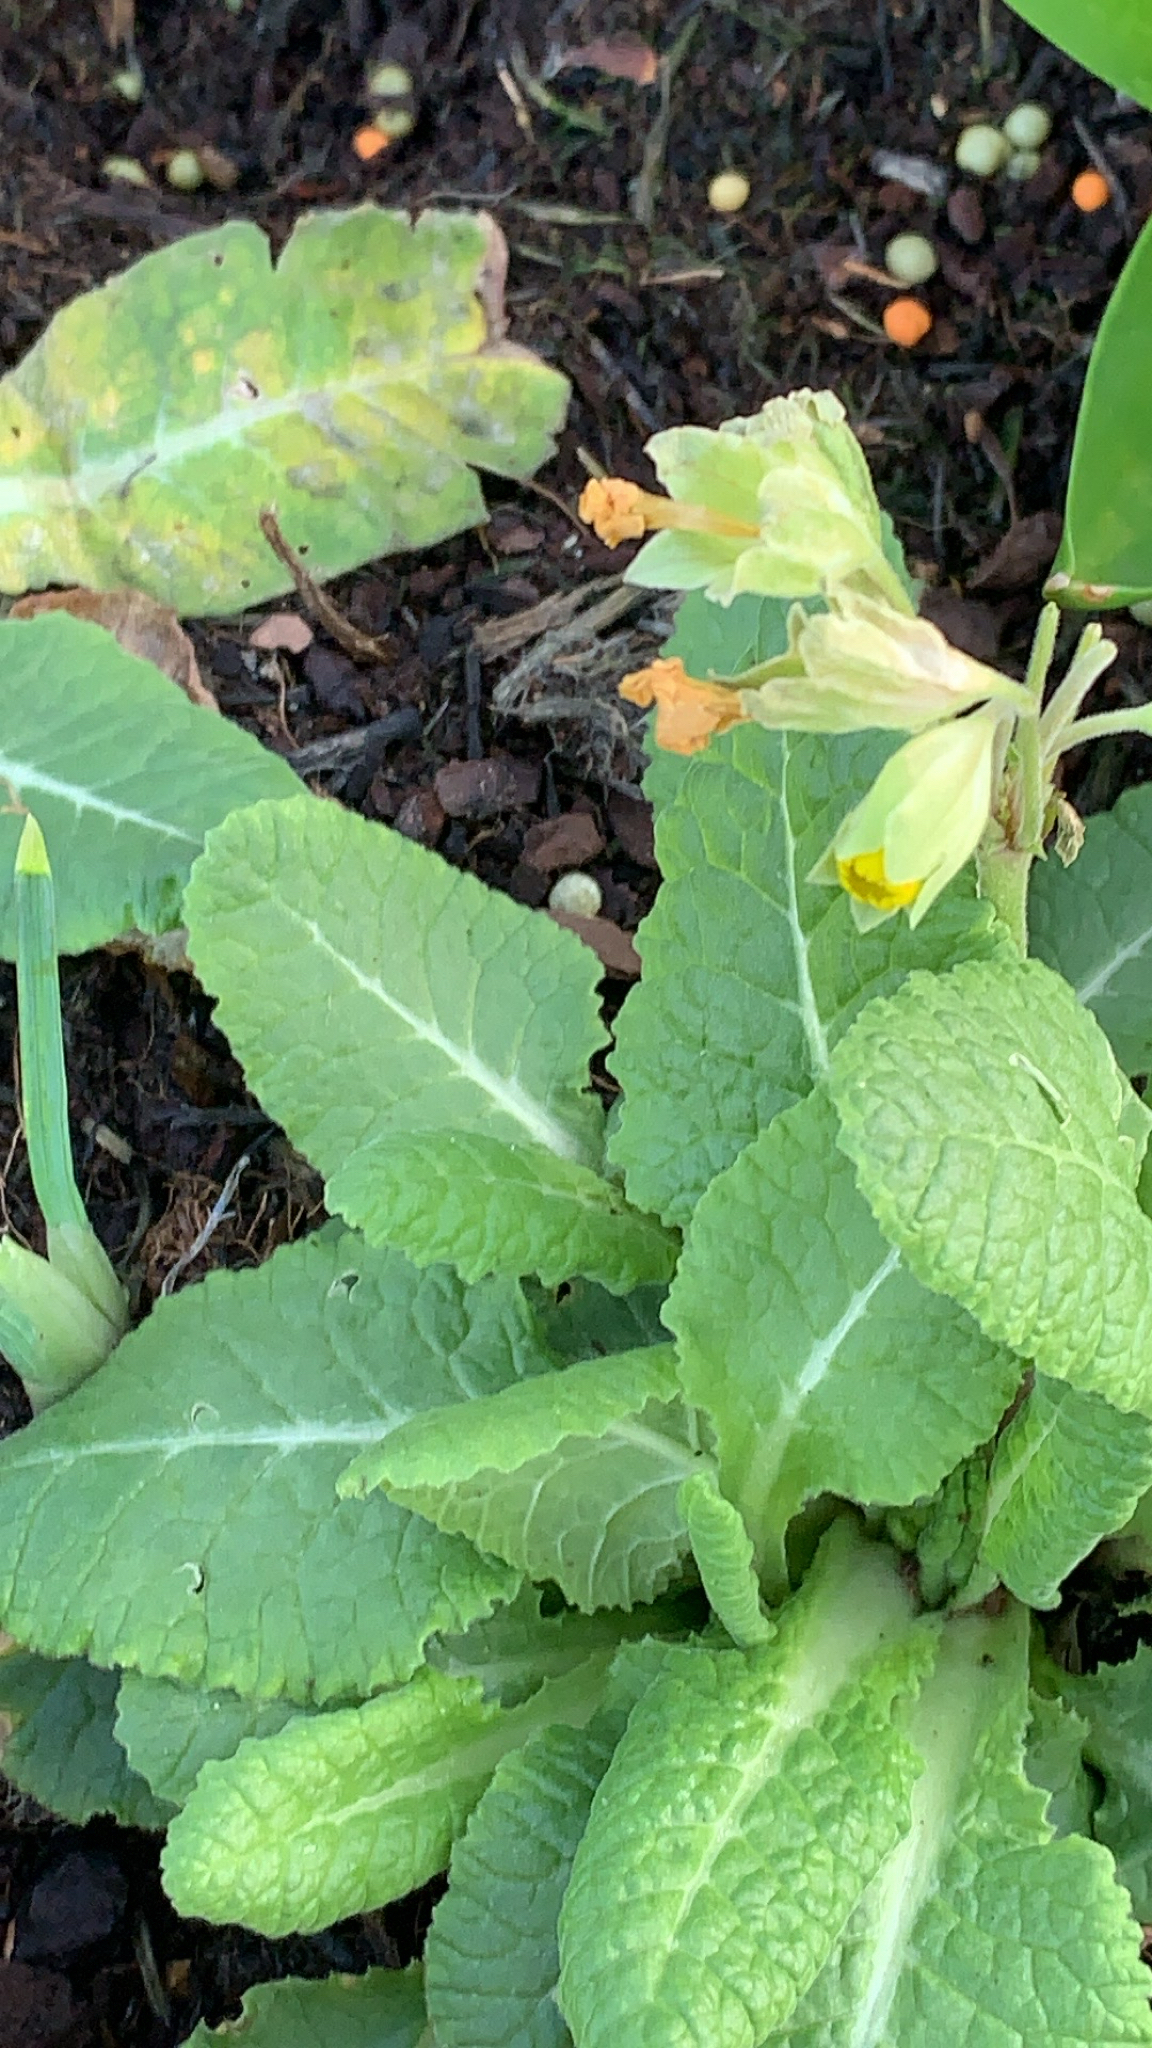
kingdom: Plantae
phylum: Tracheophyta
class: Magnoliopsida
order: Ericales
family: Primulaceae
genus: Primula
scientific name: Primula veris
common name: Cowslip
